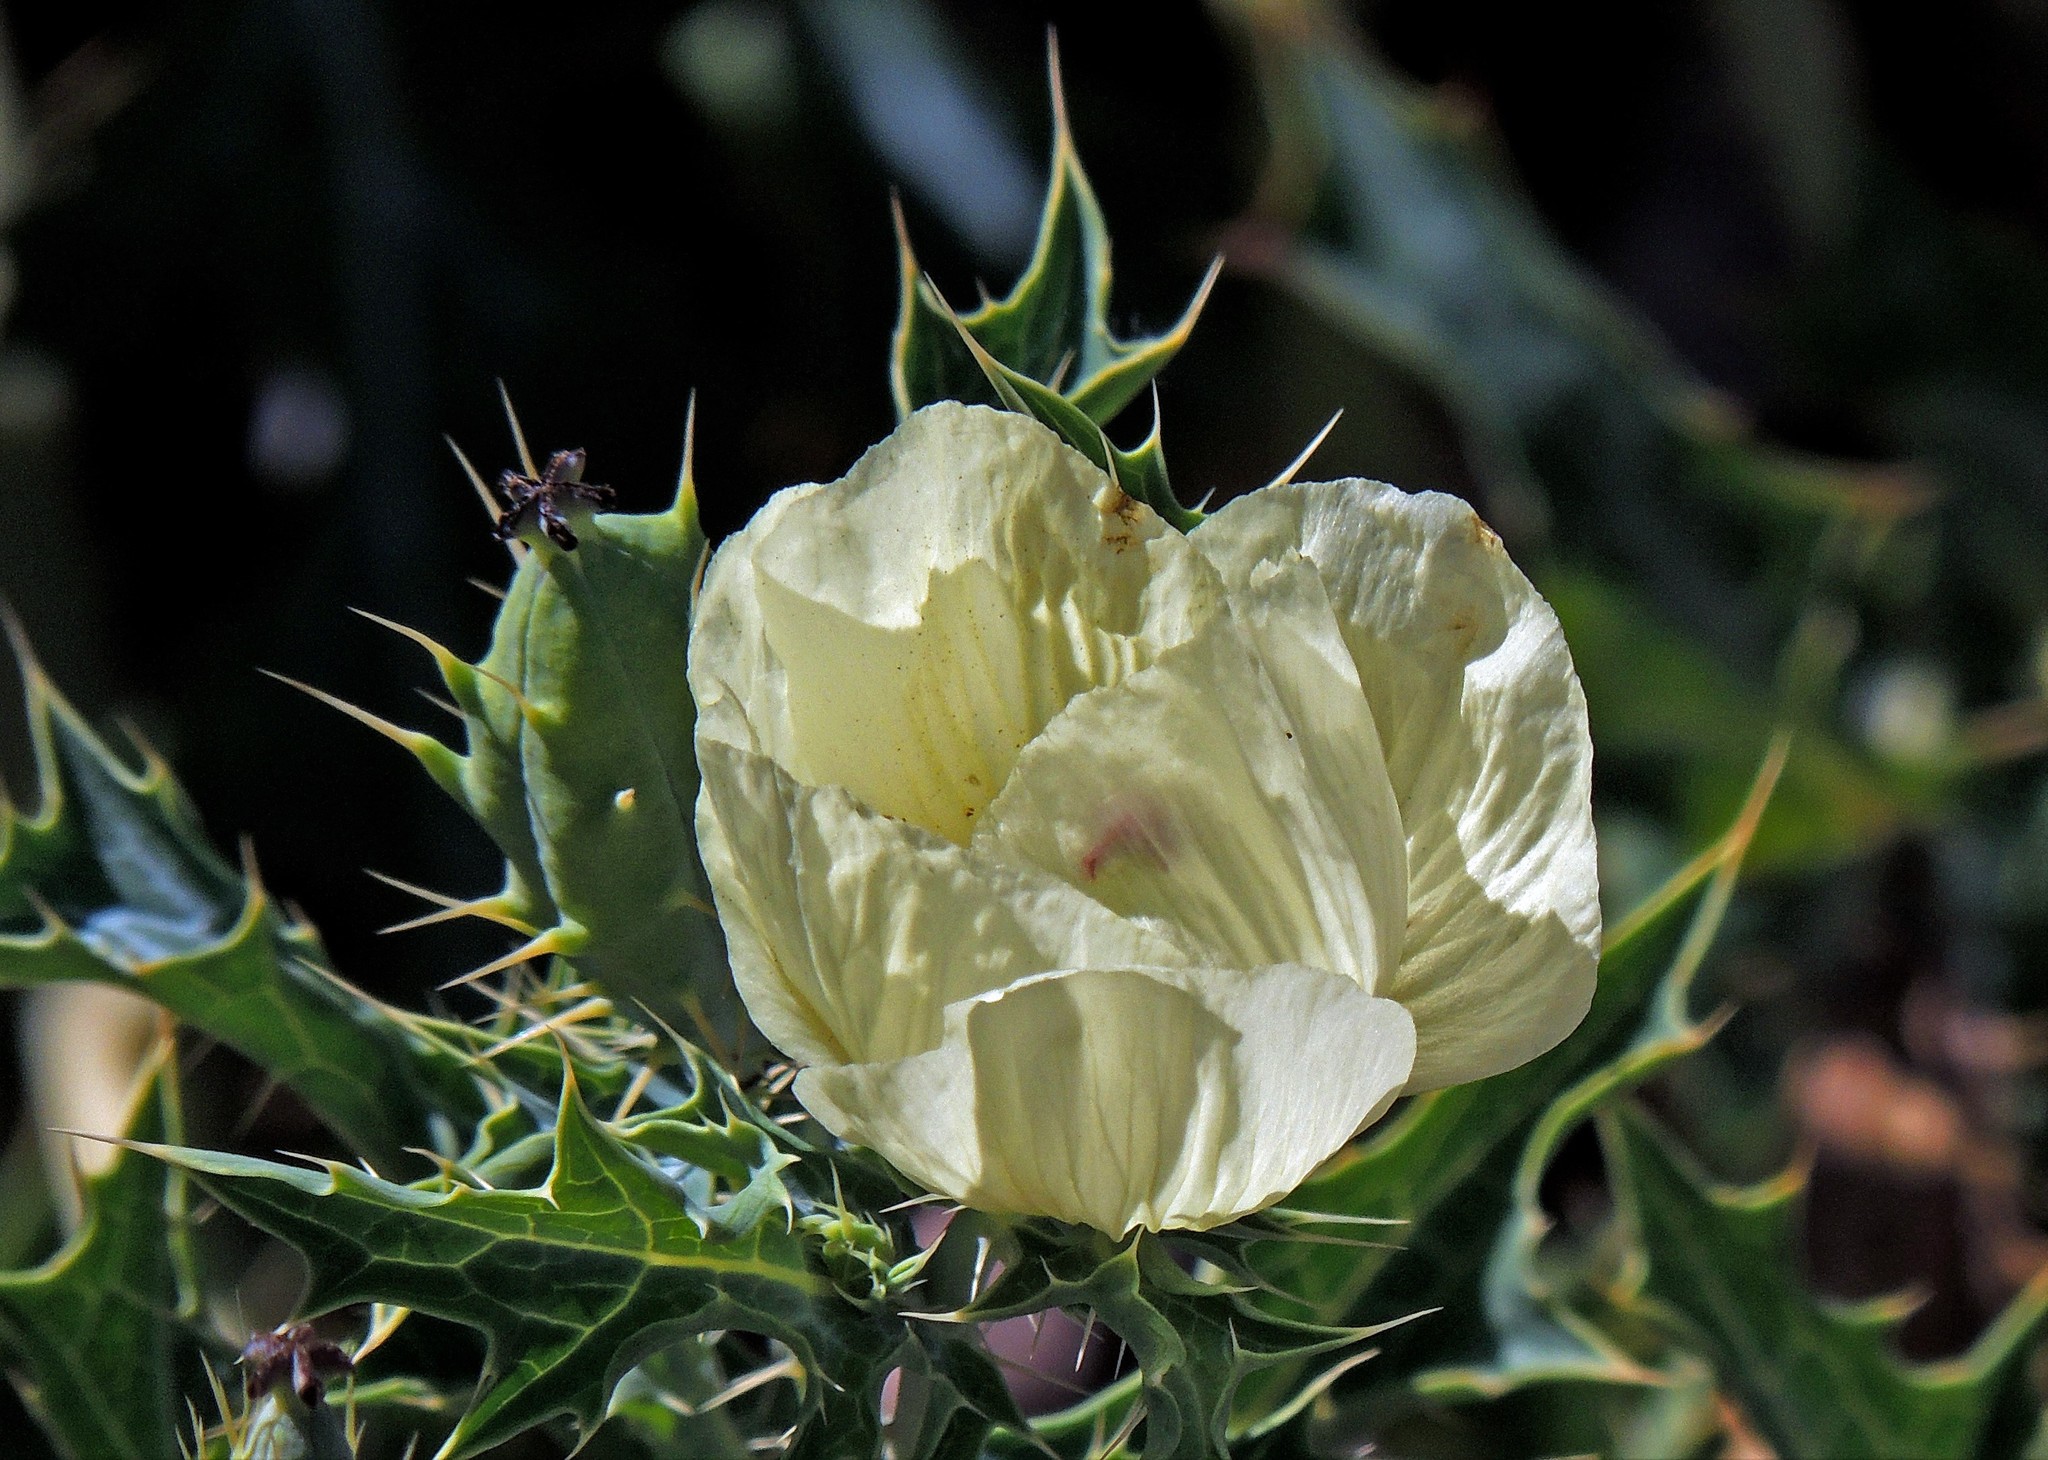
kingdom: Plantae
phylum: Tracheophyta
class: Magnoliopsida
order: Ranunculales
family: Papaveraceae
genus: Argemone
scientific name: Argemone subfusiformis
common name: American-poppy
